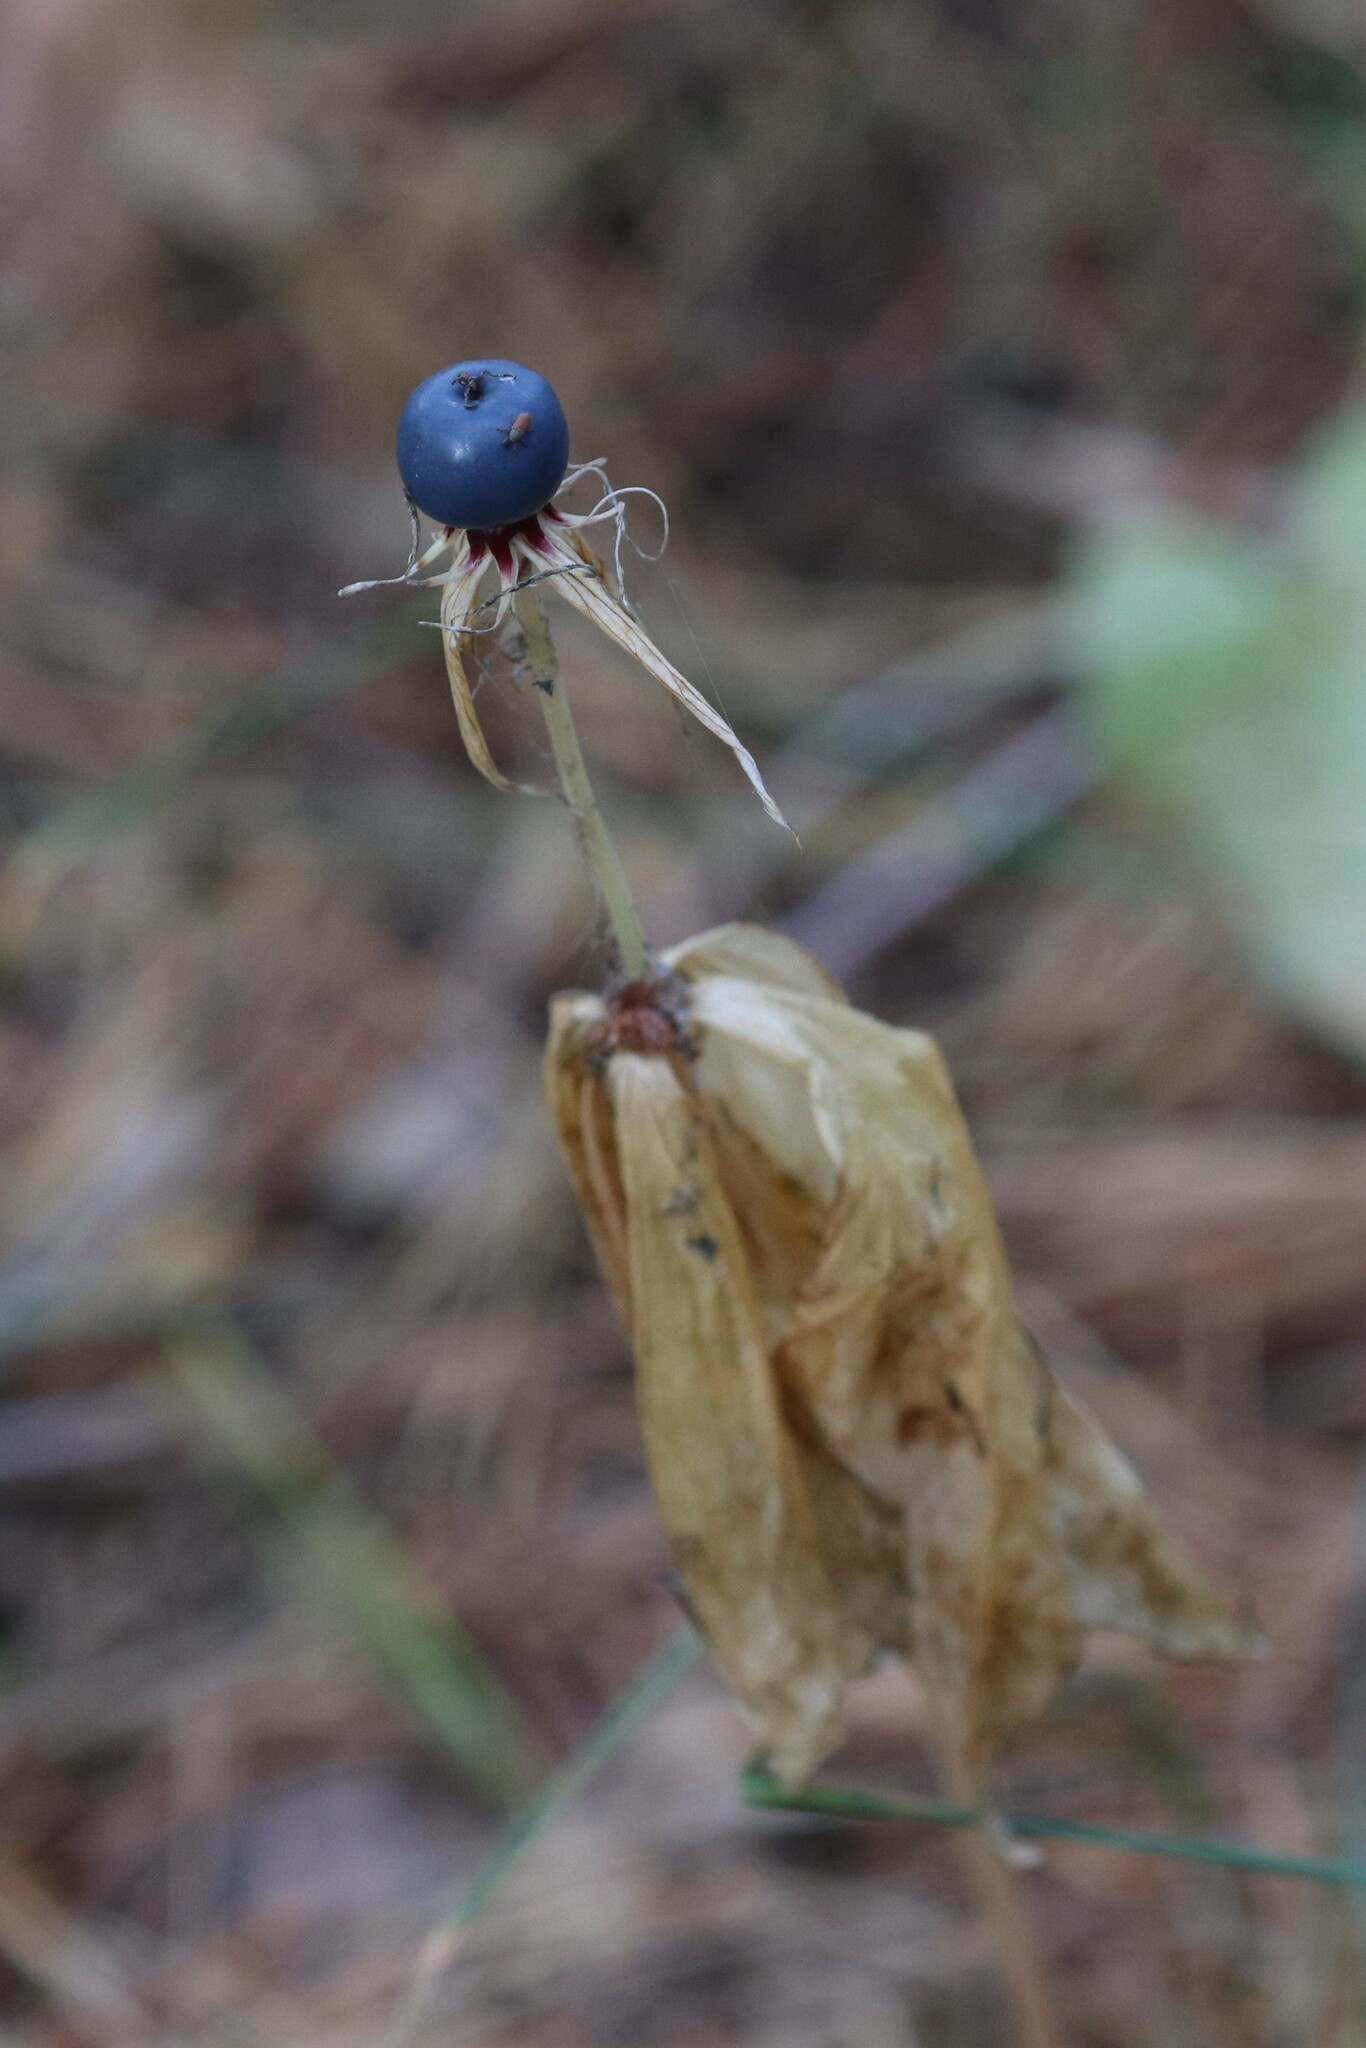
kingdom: Plantae
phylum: Tracheophyta
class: Liliopsida
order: Liliales
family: Melanthiaceae
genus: Paris
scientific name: Paris quadrifolia
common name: Herb-paris
